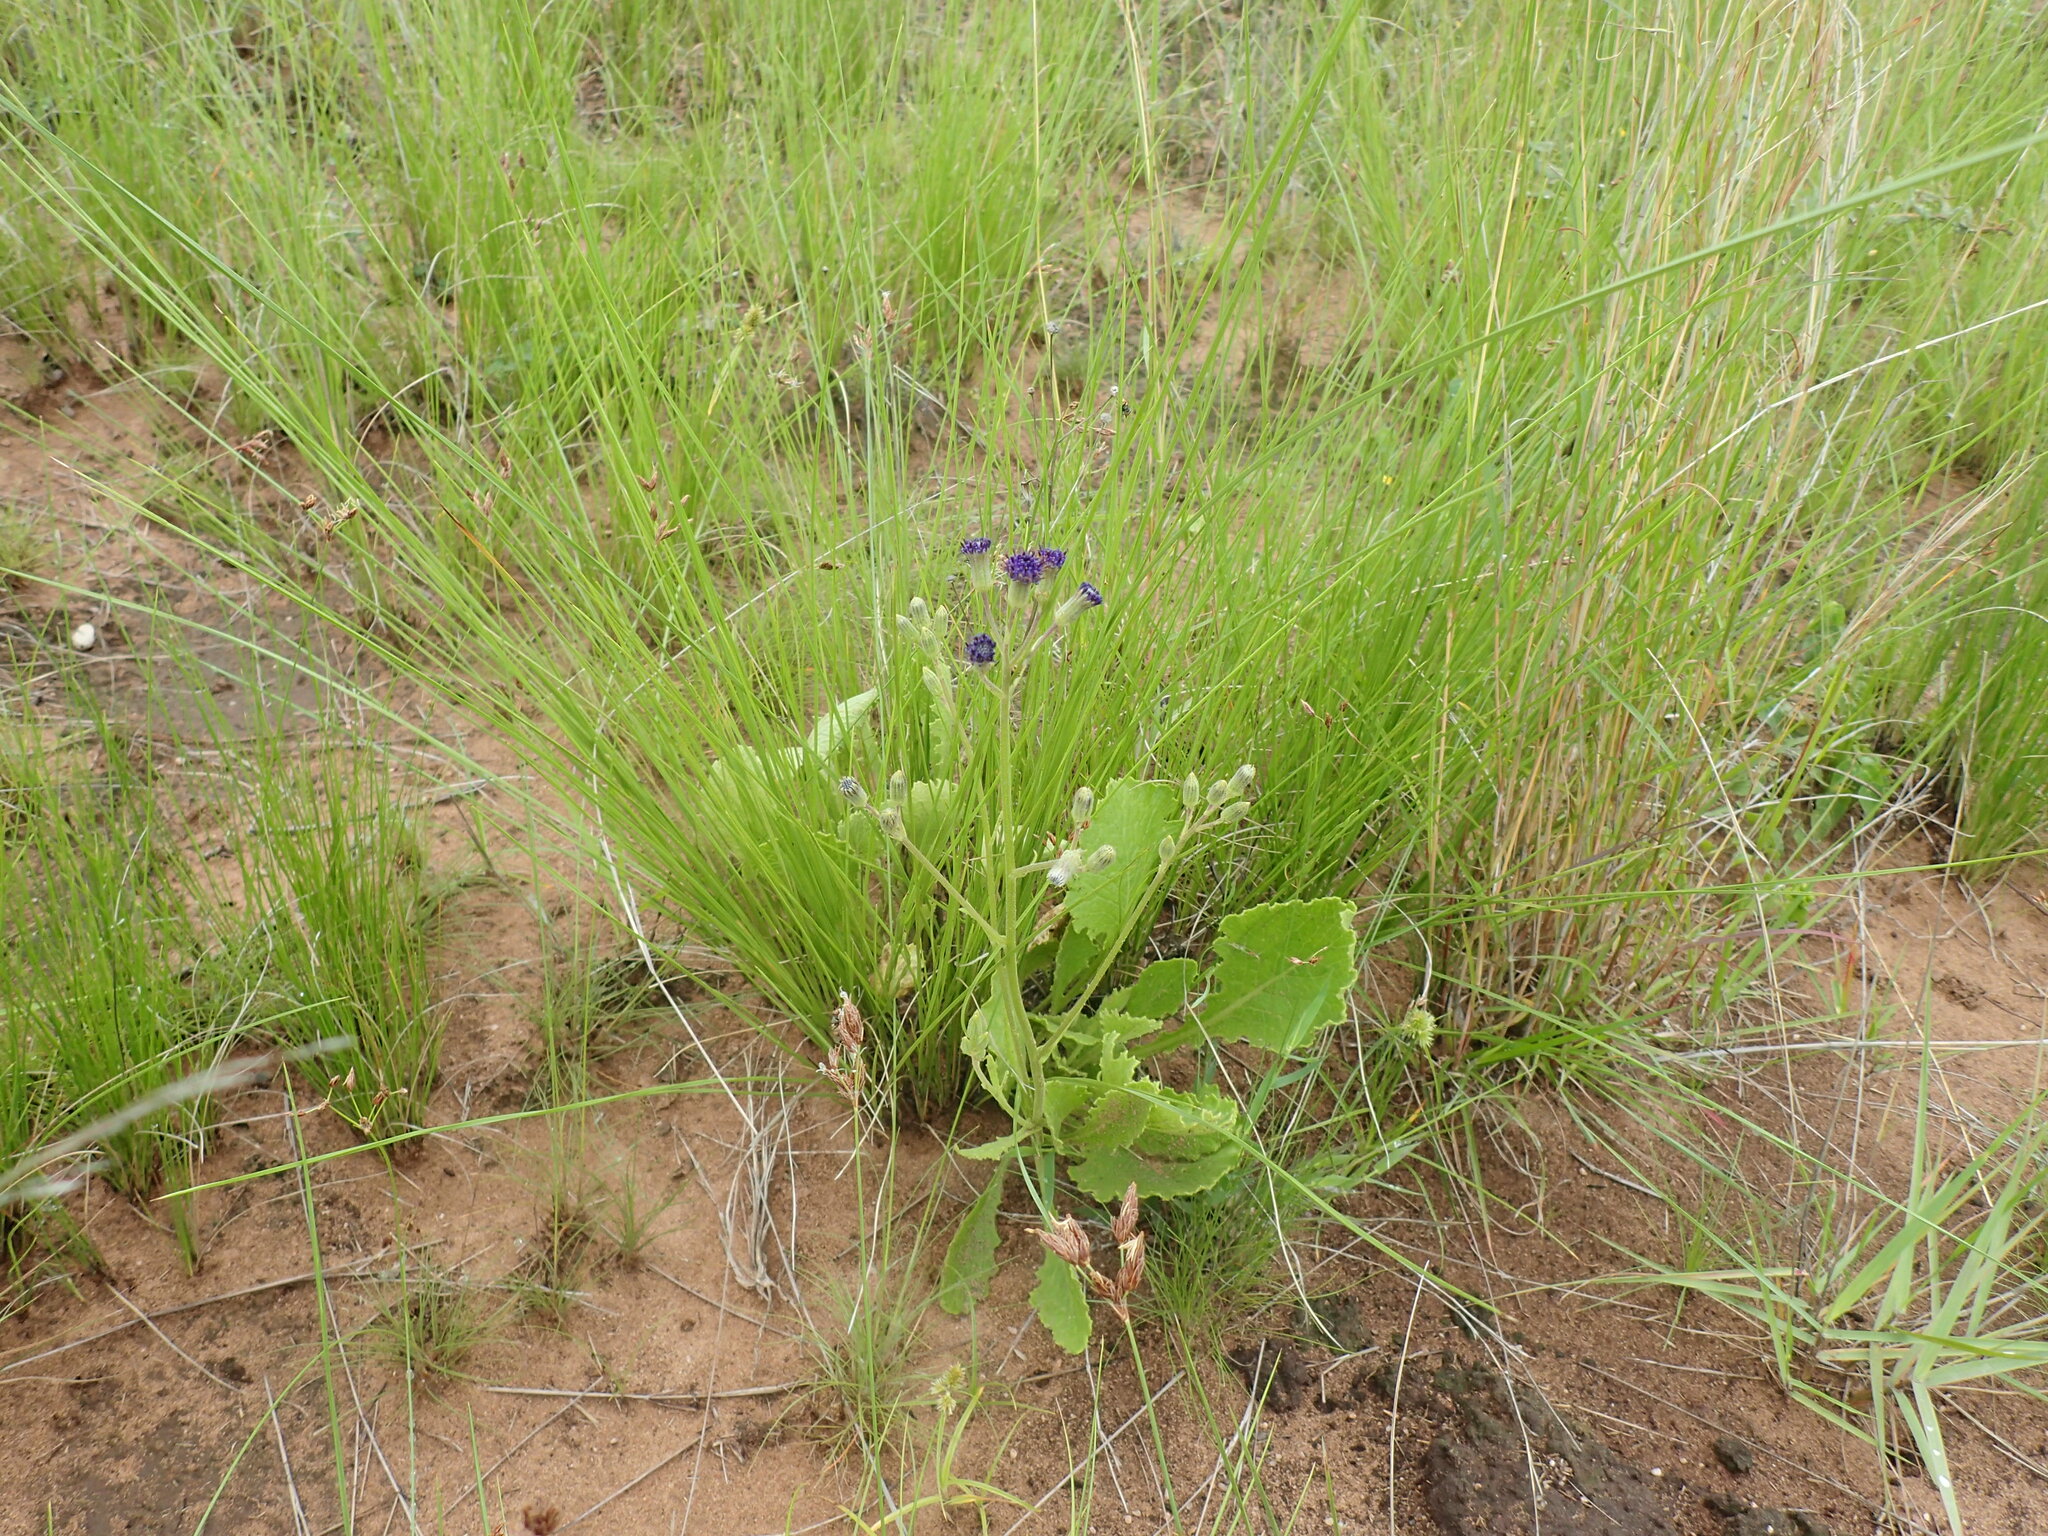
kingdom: Plantae
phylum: Tracheophyta
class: Magnoliopsida
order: Asterales
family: Asteraceae
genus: Senecio
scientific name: Senecio umgeniensis
